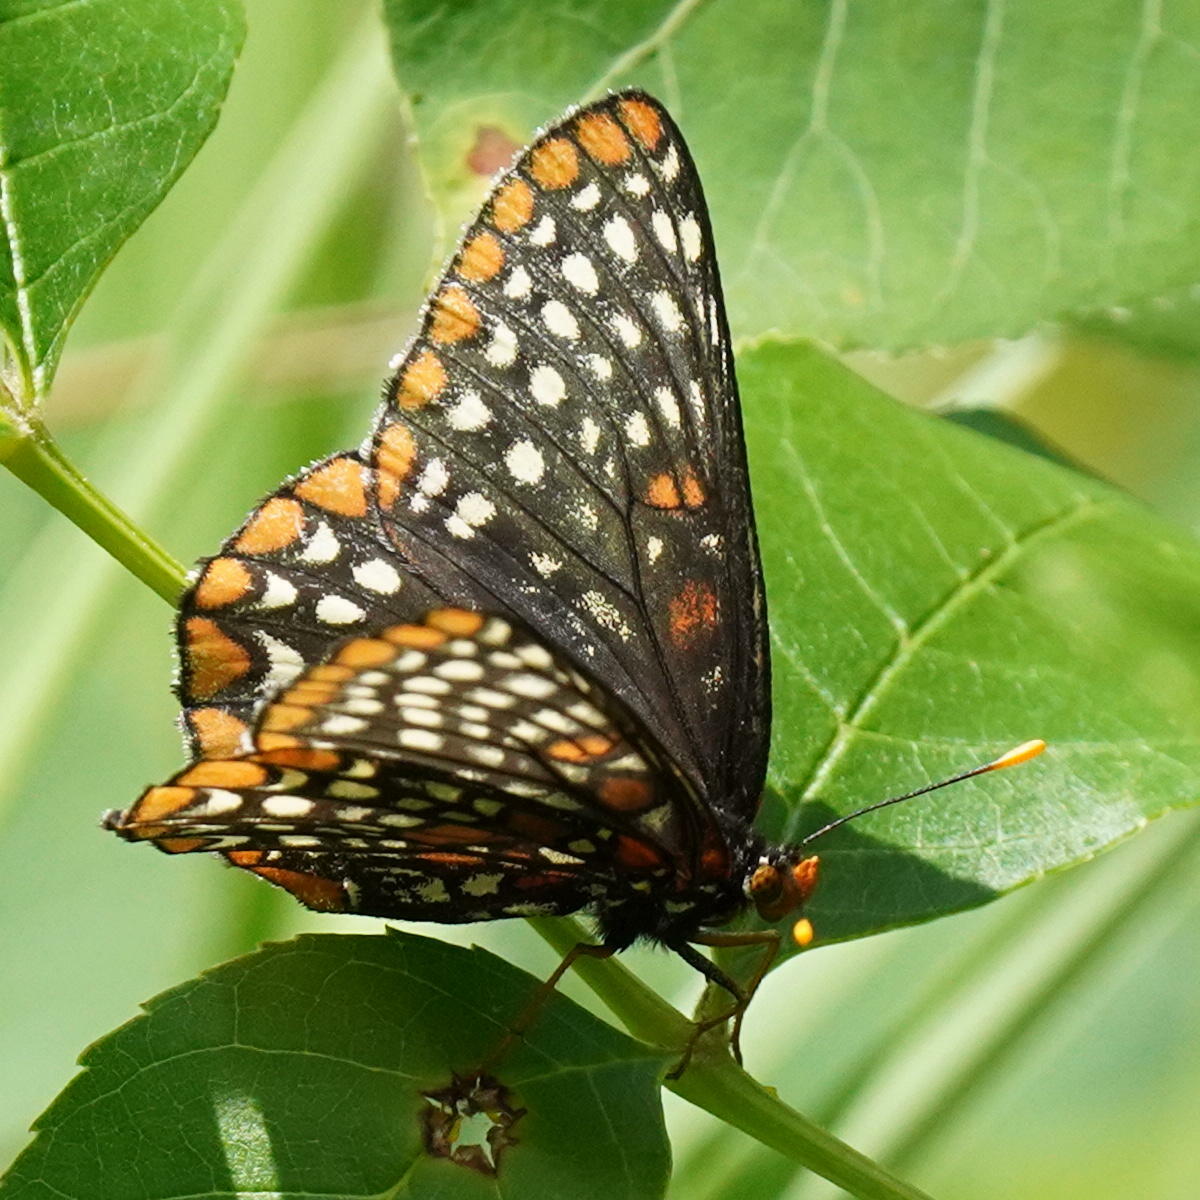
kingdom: Animalia
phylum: Arthropoda
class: Insecta
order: Lepidoptera
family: Nymphalidae
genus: Euphydryas
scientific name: Euphydryas phaeton
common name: Baltimore checkerspot
